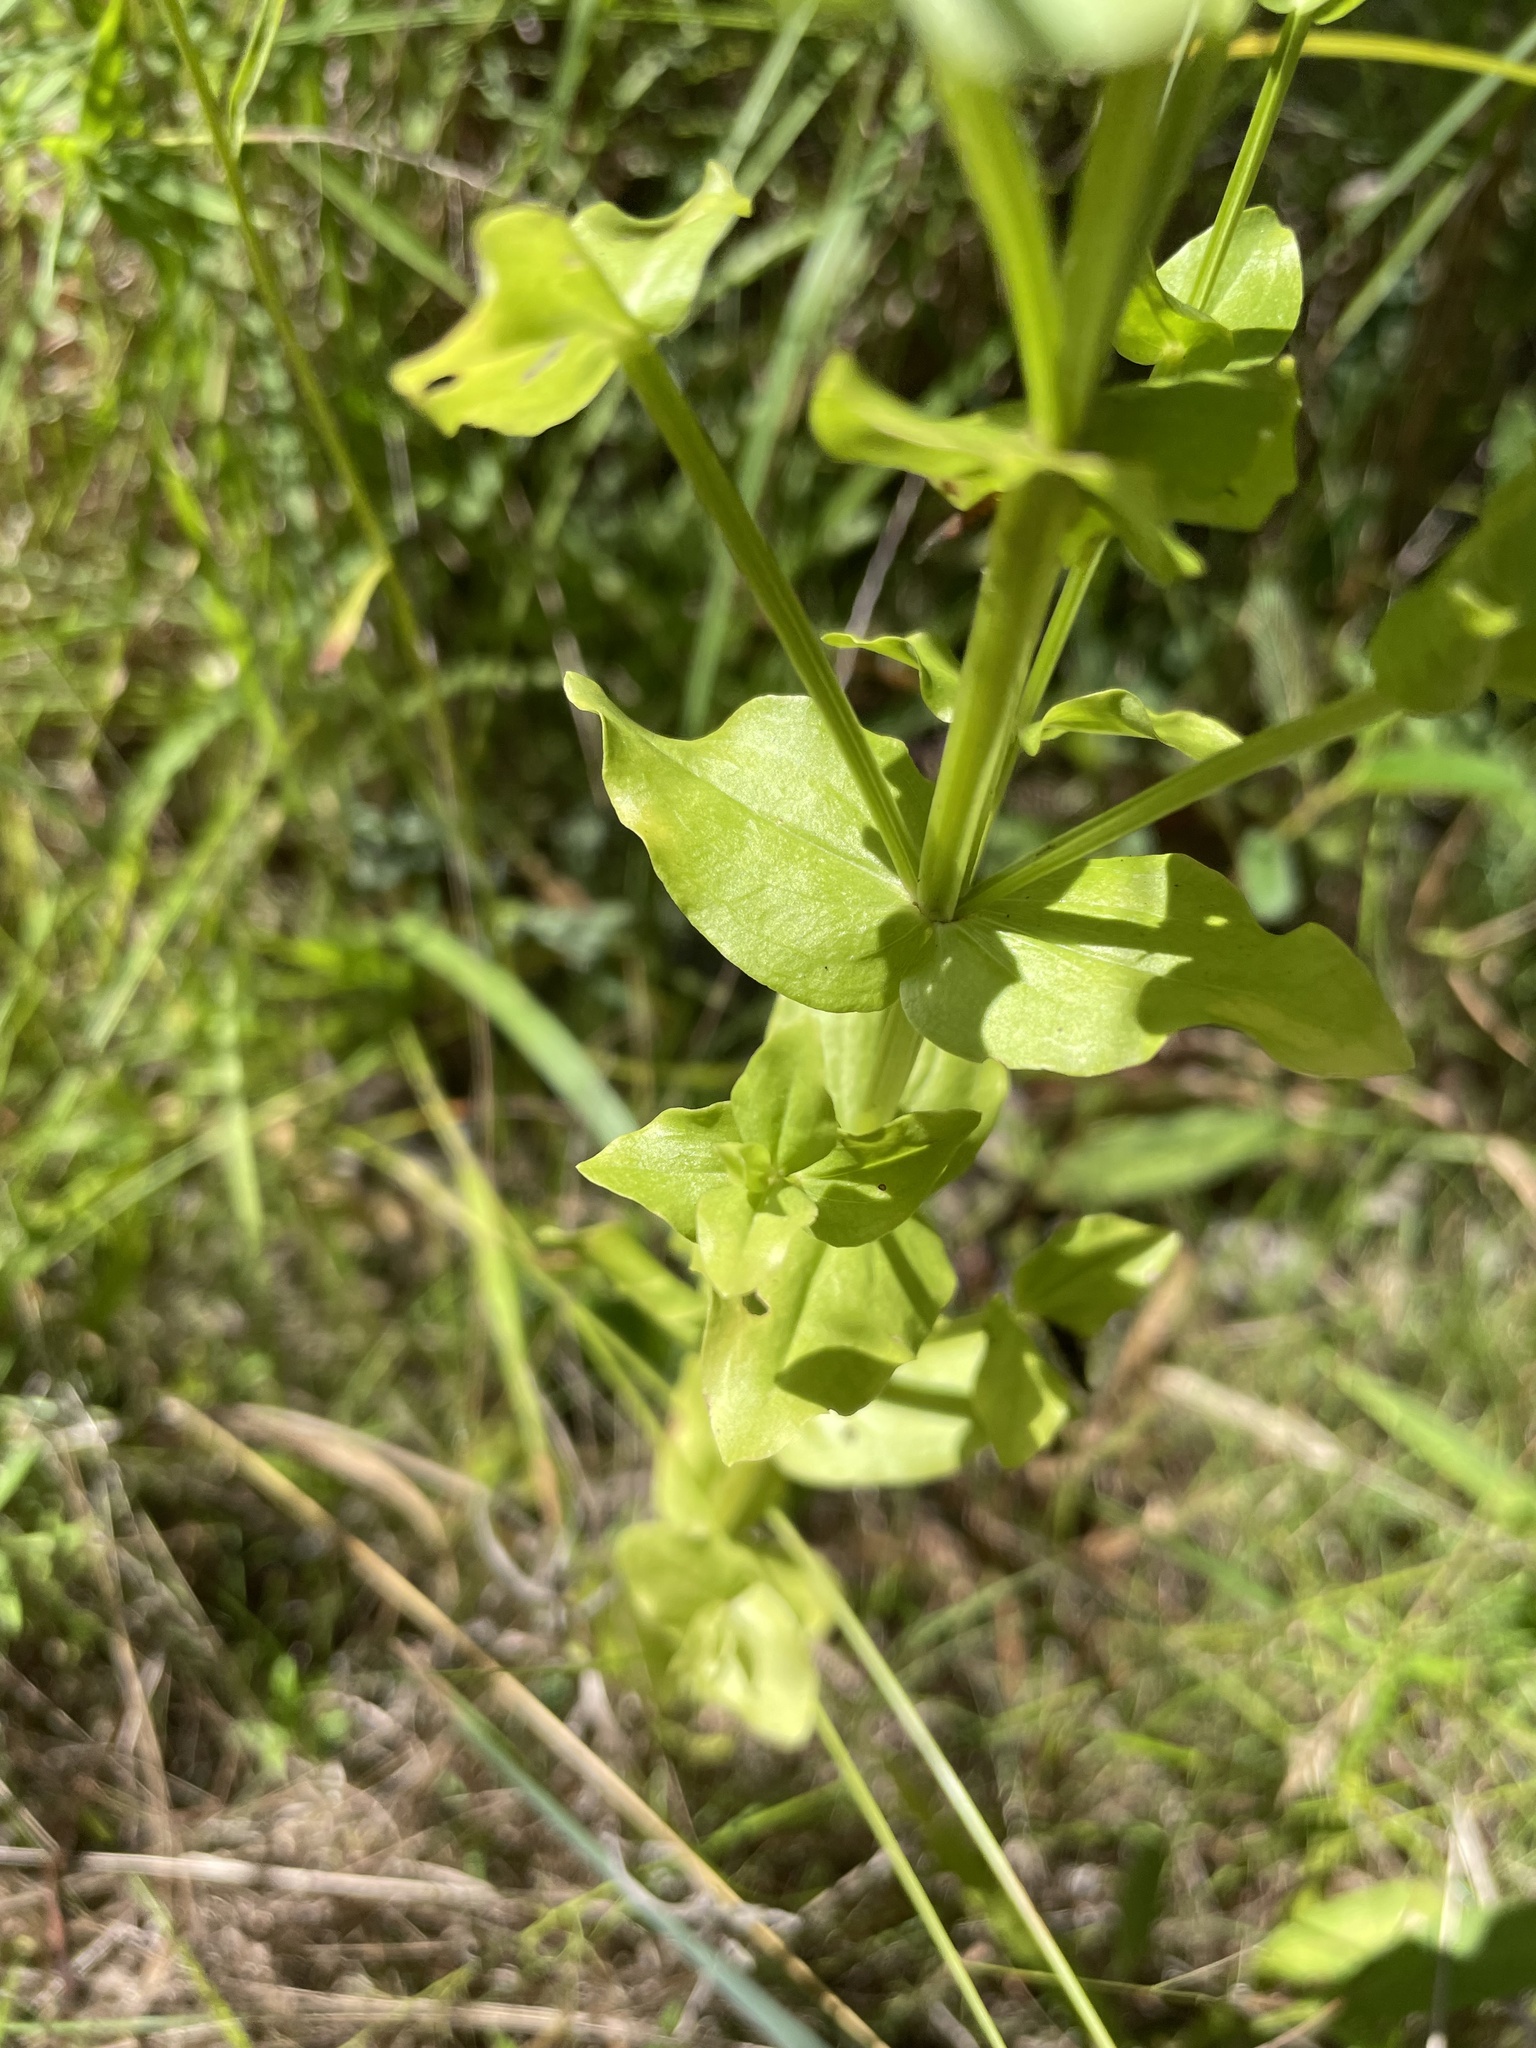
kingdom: Plantae
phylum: Tracheophyta
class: Magnoliopsida
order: Gentianales
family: Gentianaceae
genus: Sabatia
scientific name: Sabatia angularis
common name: Rose-pink
